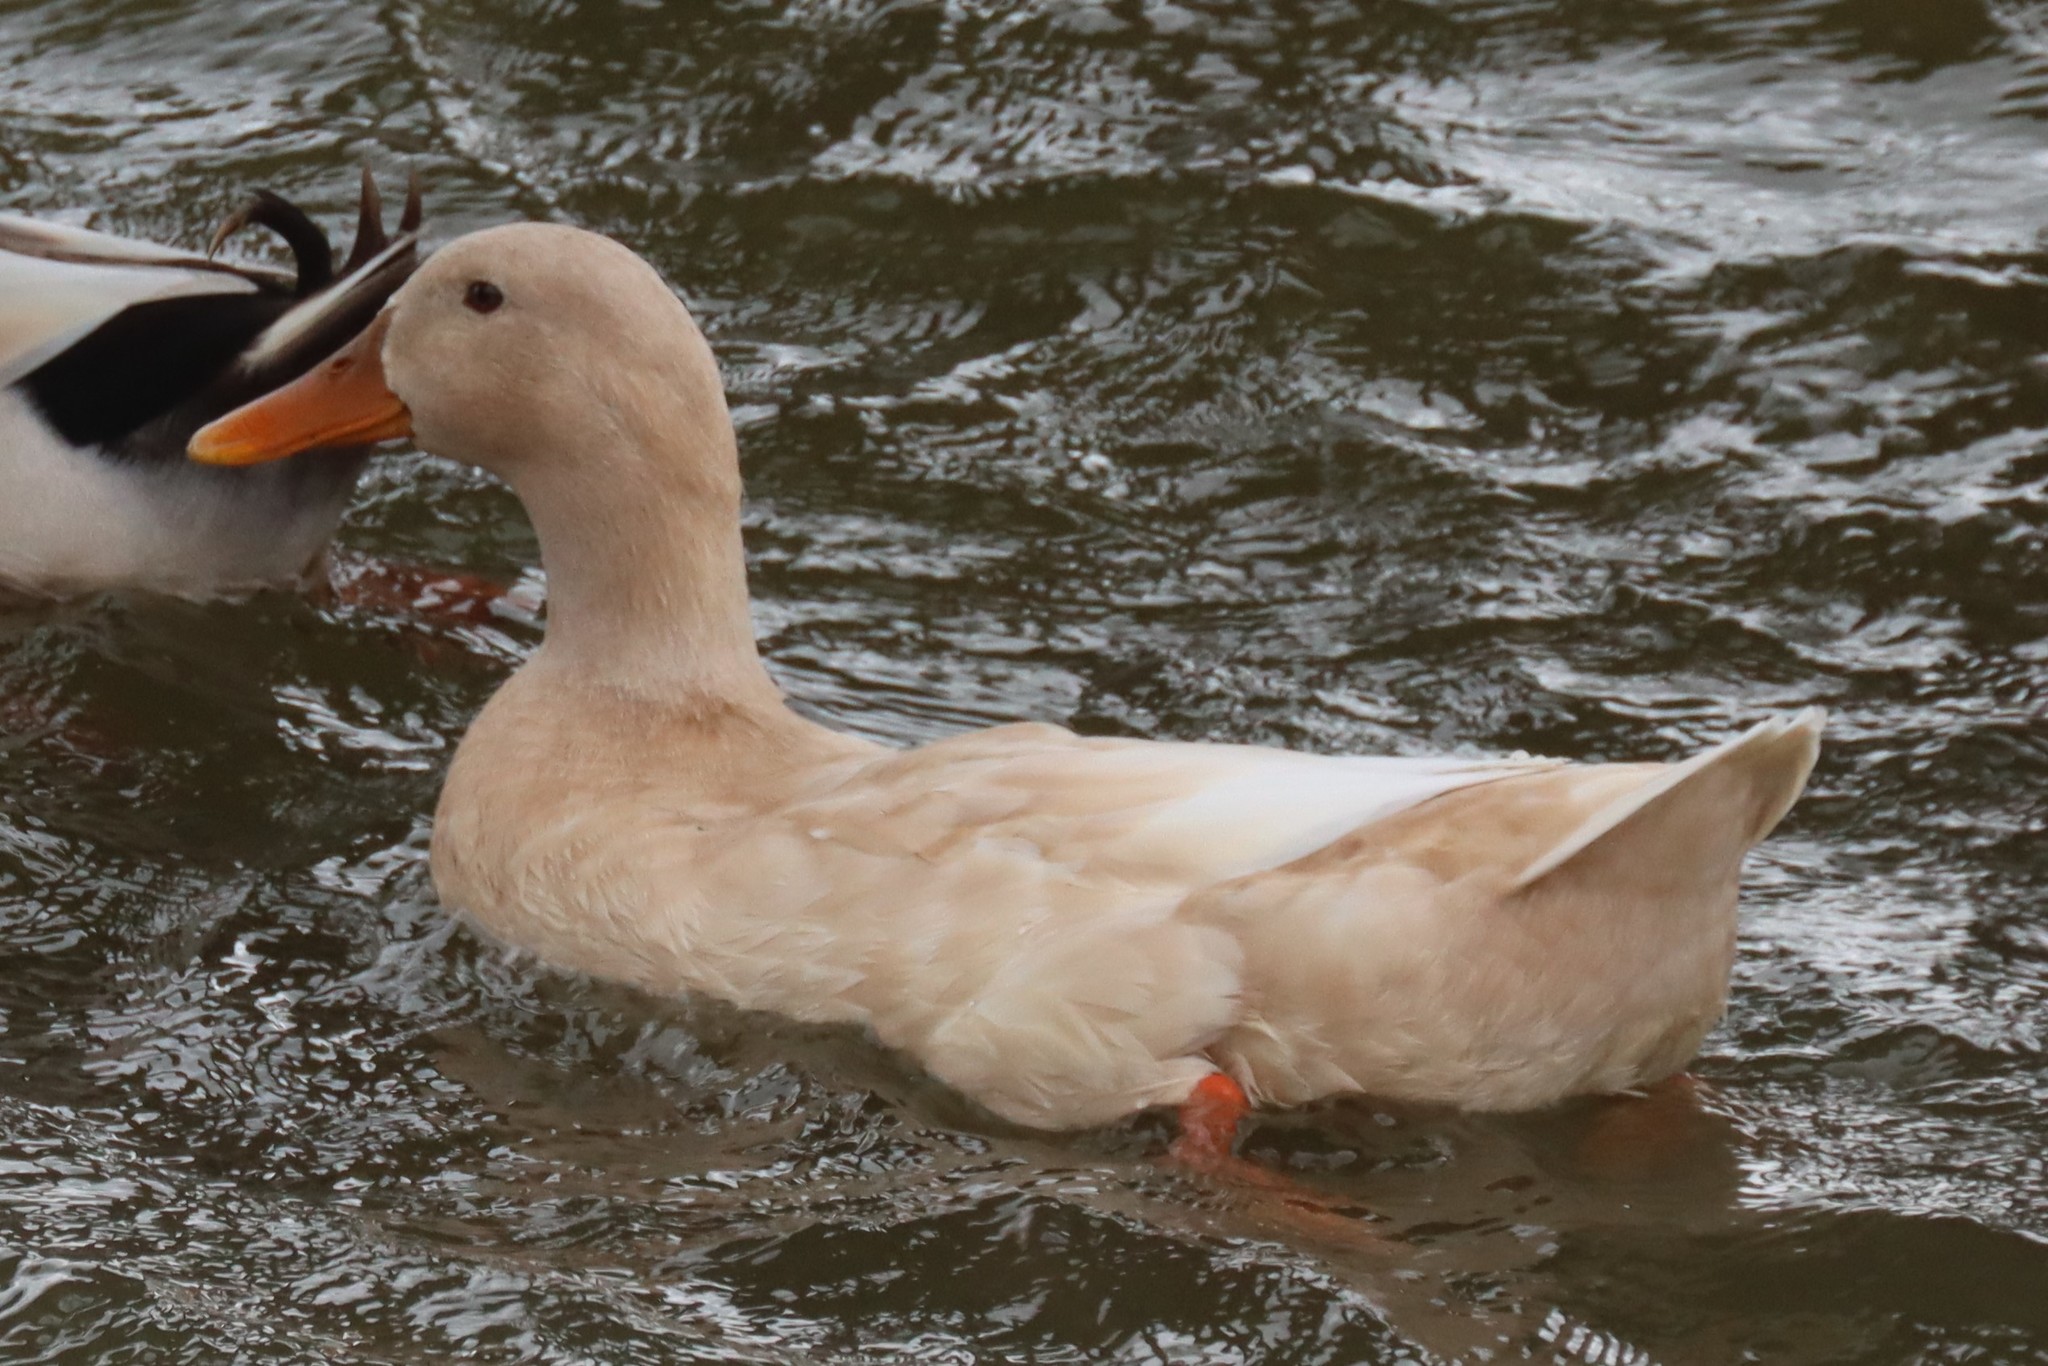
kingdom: Animalia
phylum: Chordata
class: Aves
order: Anseriformes
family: Anatidae
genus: Anas
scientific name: Anas platyrhynchos
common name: Mallard
